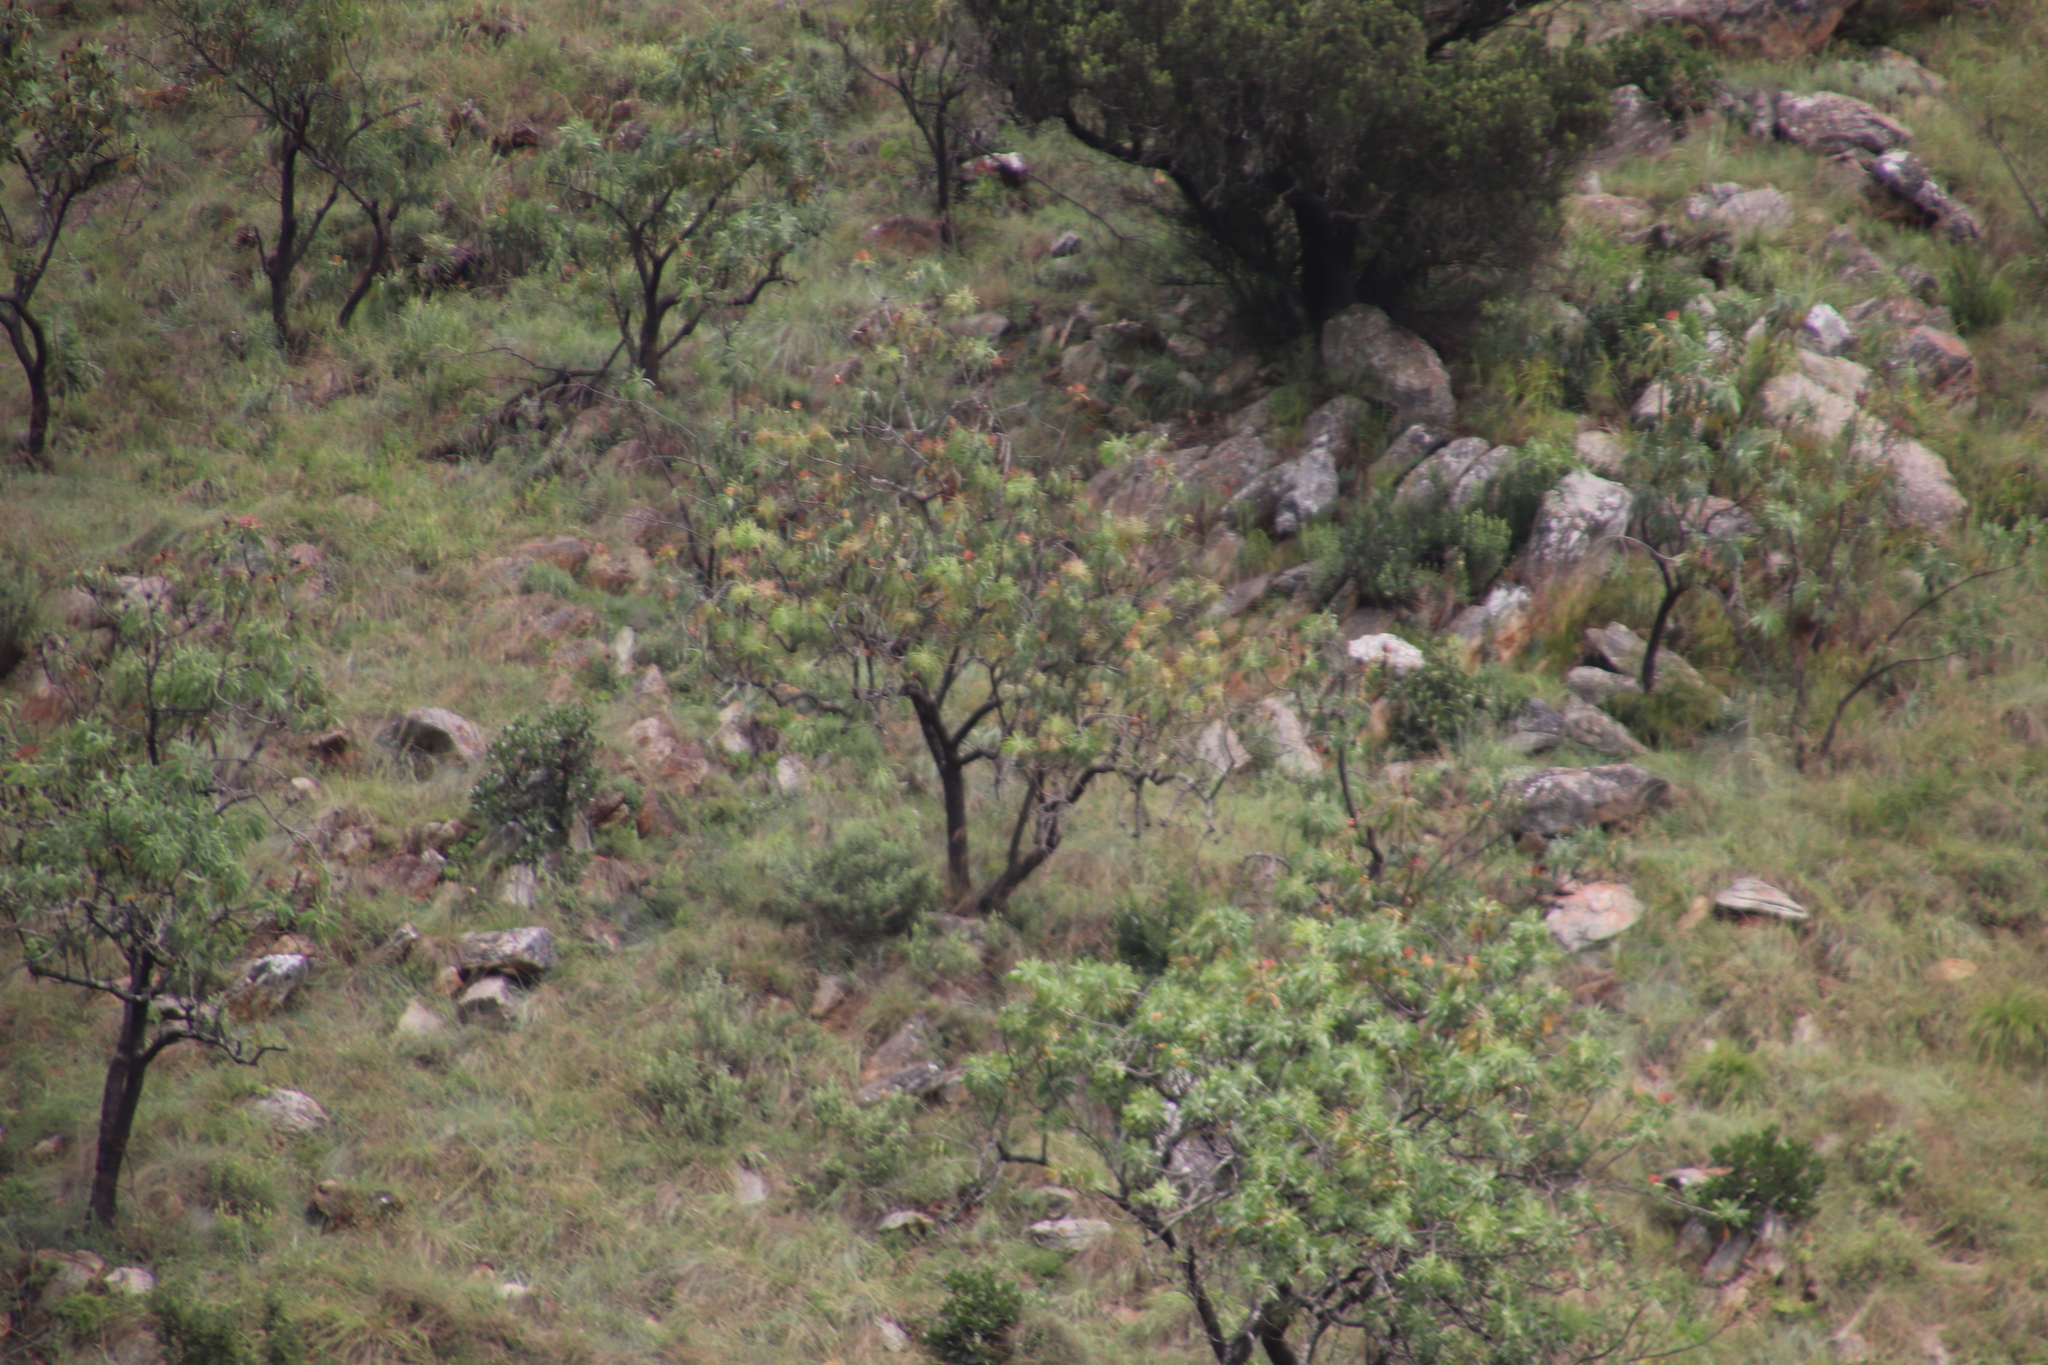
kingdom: Plantae
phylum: Tracheophyta
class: Magnoliopsida
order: Proteales
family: Proteaceae
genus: Protea
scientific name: Protea caffra
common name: Common sugarbush
